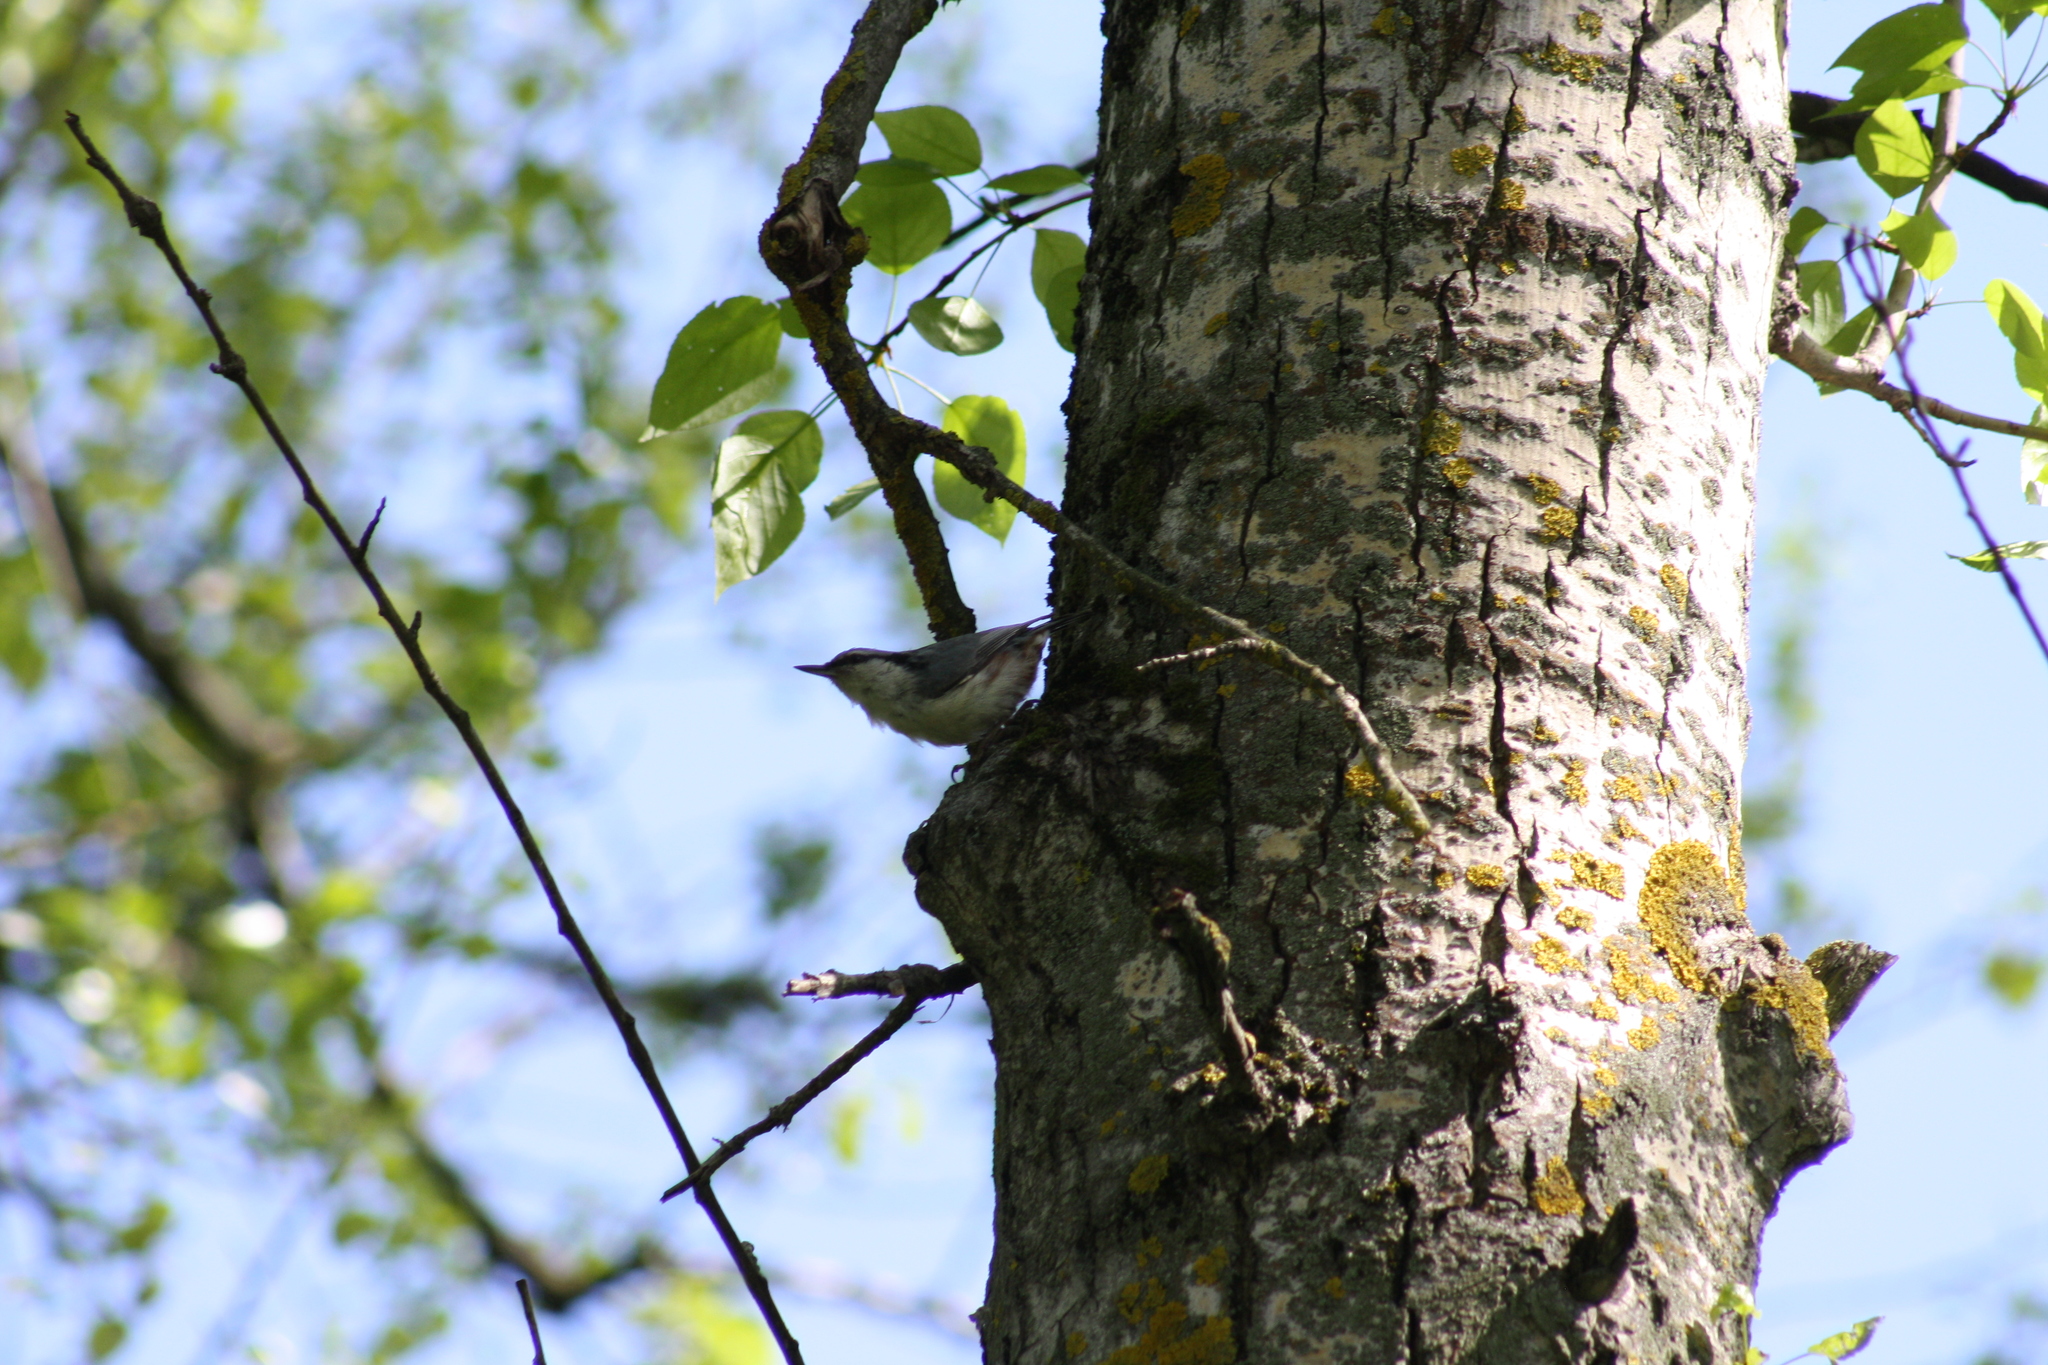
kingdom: Animalia
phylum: Chordata
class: Aves
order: Passeriformes
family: Sittidae
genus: Sitta
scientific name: Sitta europaea
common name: Eurasian nuthatch
